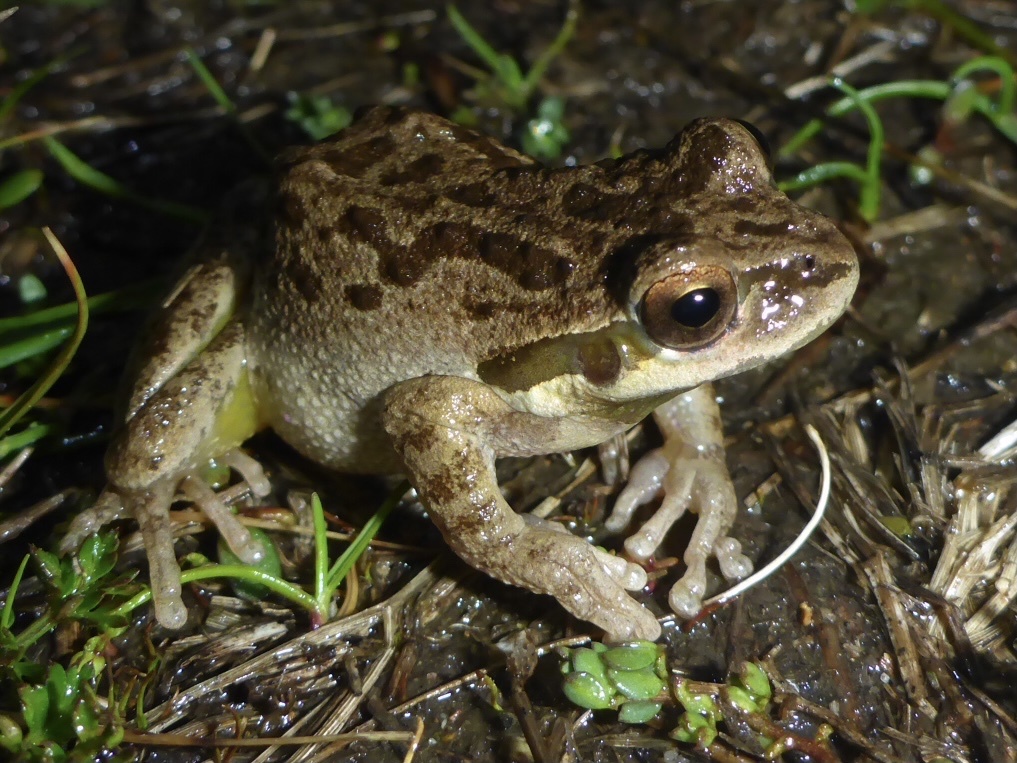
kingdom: Animalia
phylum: Chordata
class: Amphibia
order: Anura
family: Hylidae
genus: Pseudacris
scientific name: Pseudacris regilla
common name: Pacific chorus frog
